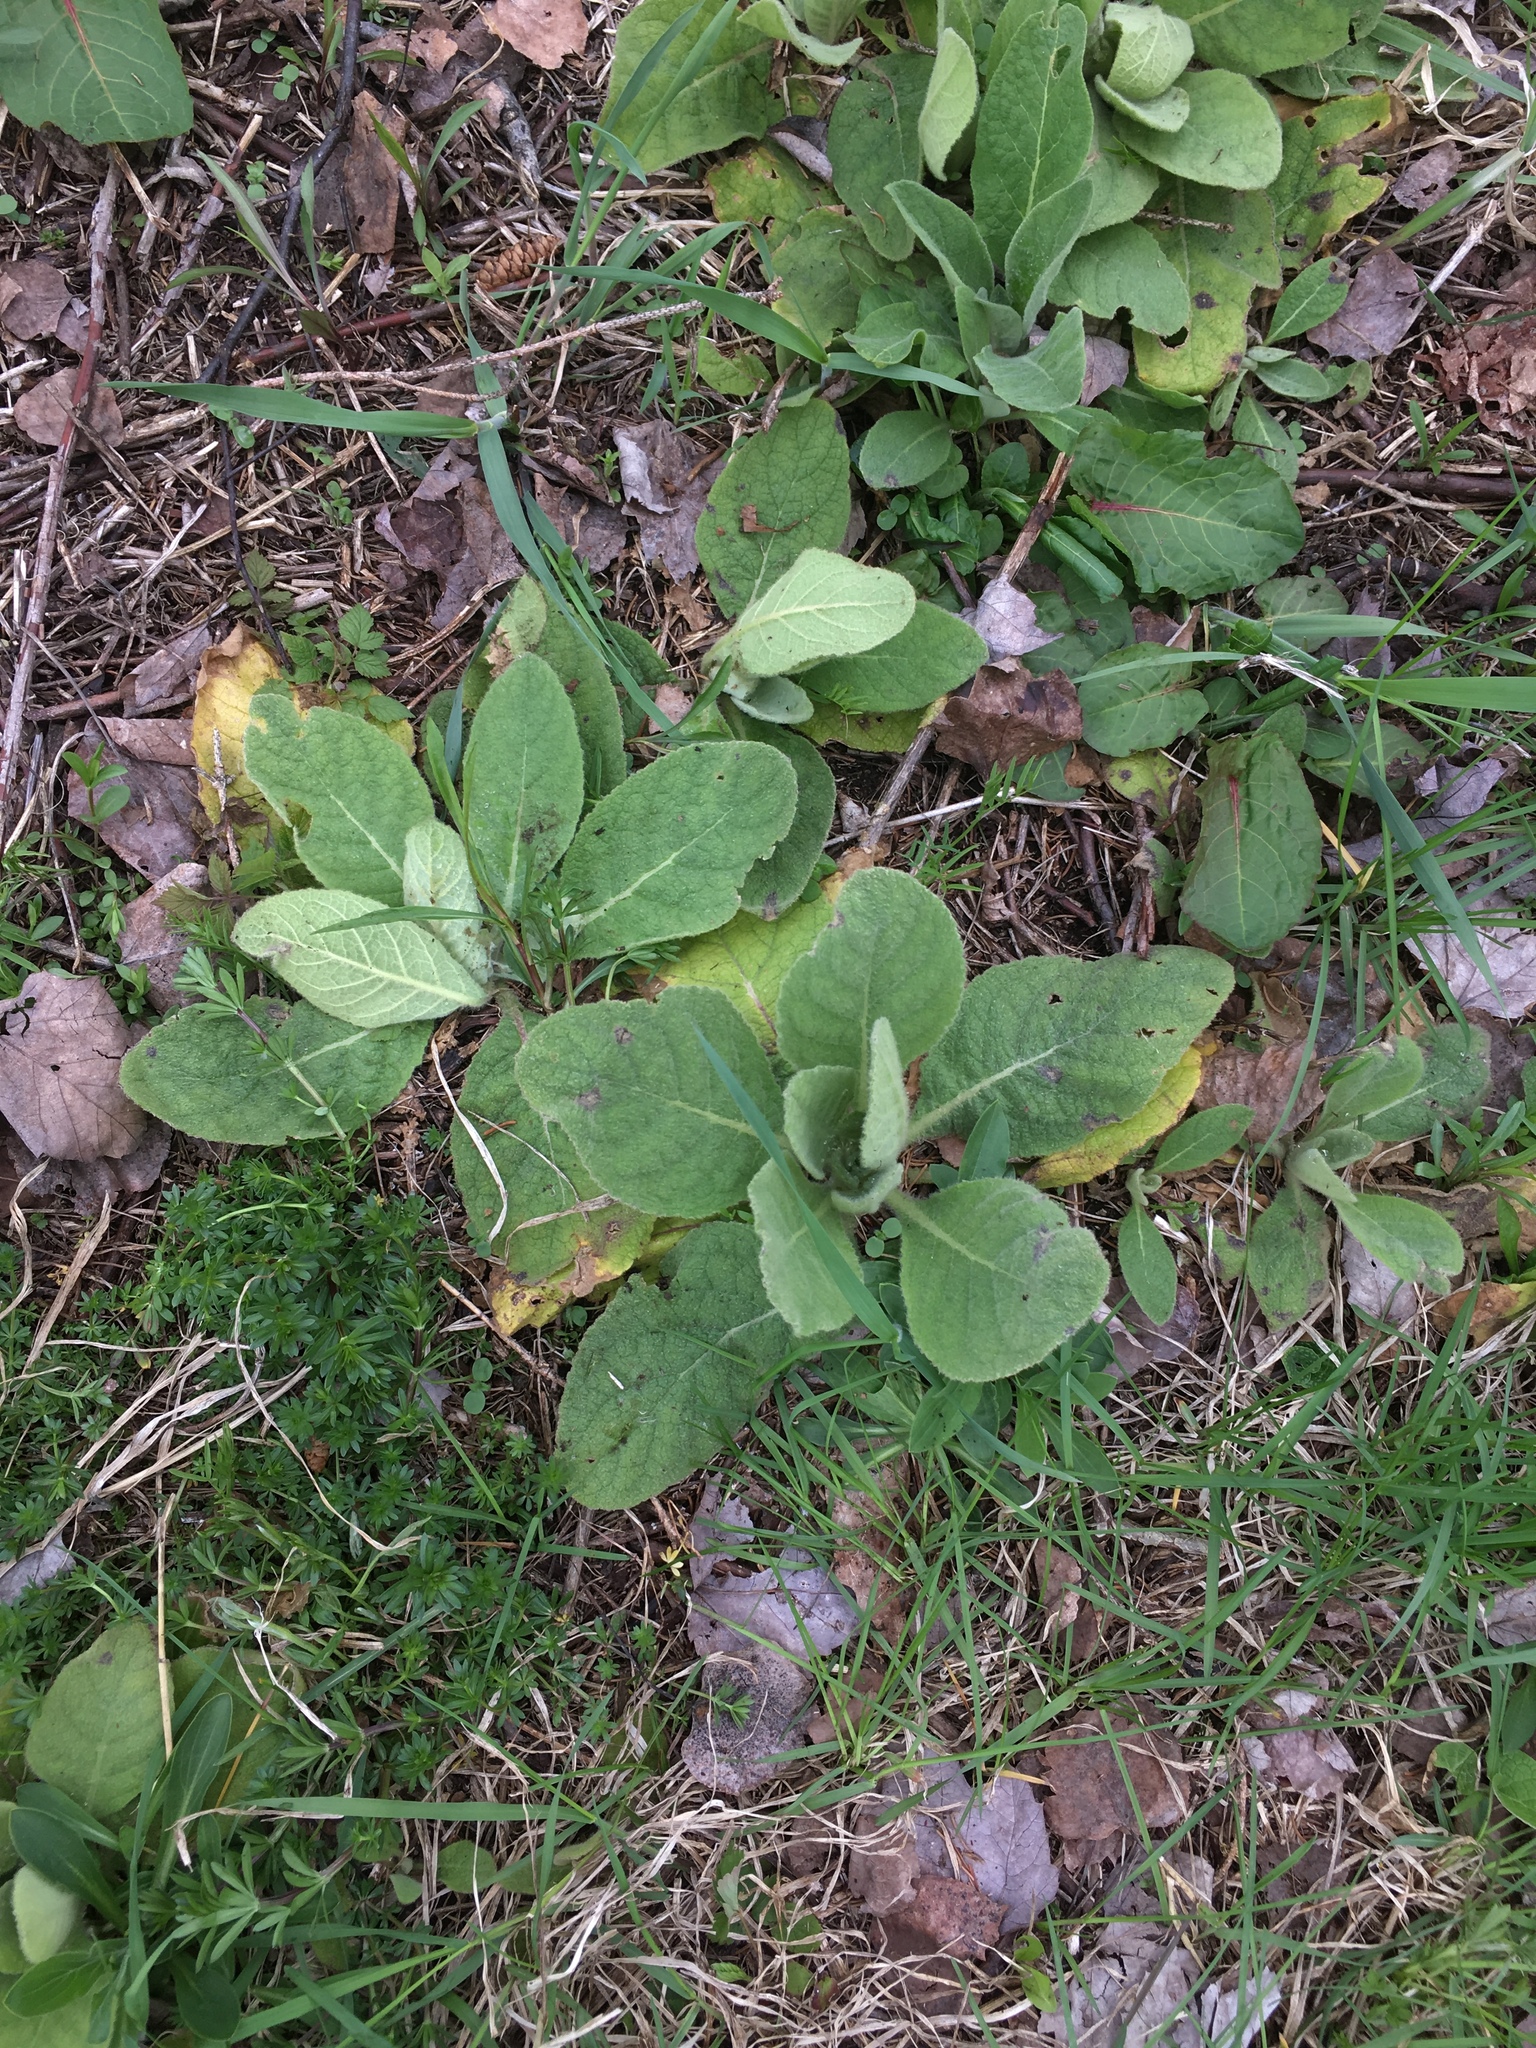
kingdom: Plantae
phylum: Tracheophyta
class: Magnoliopsida
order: Lamiales
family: Scrophulariaceae
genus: Verbascum
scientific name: Verbascum thapsus
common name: Common mullein
